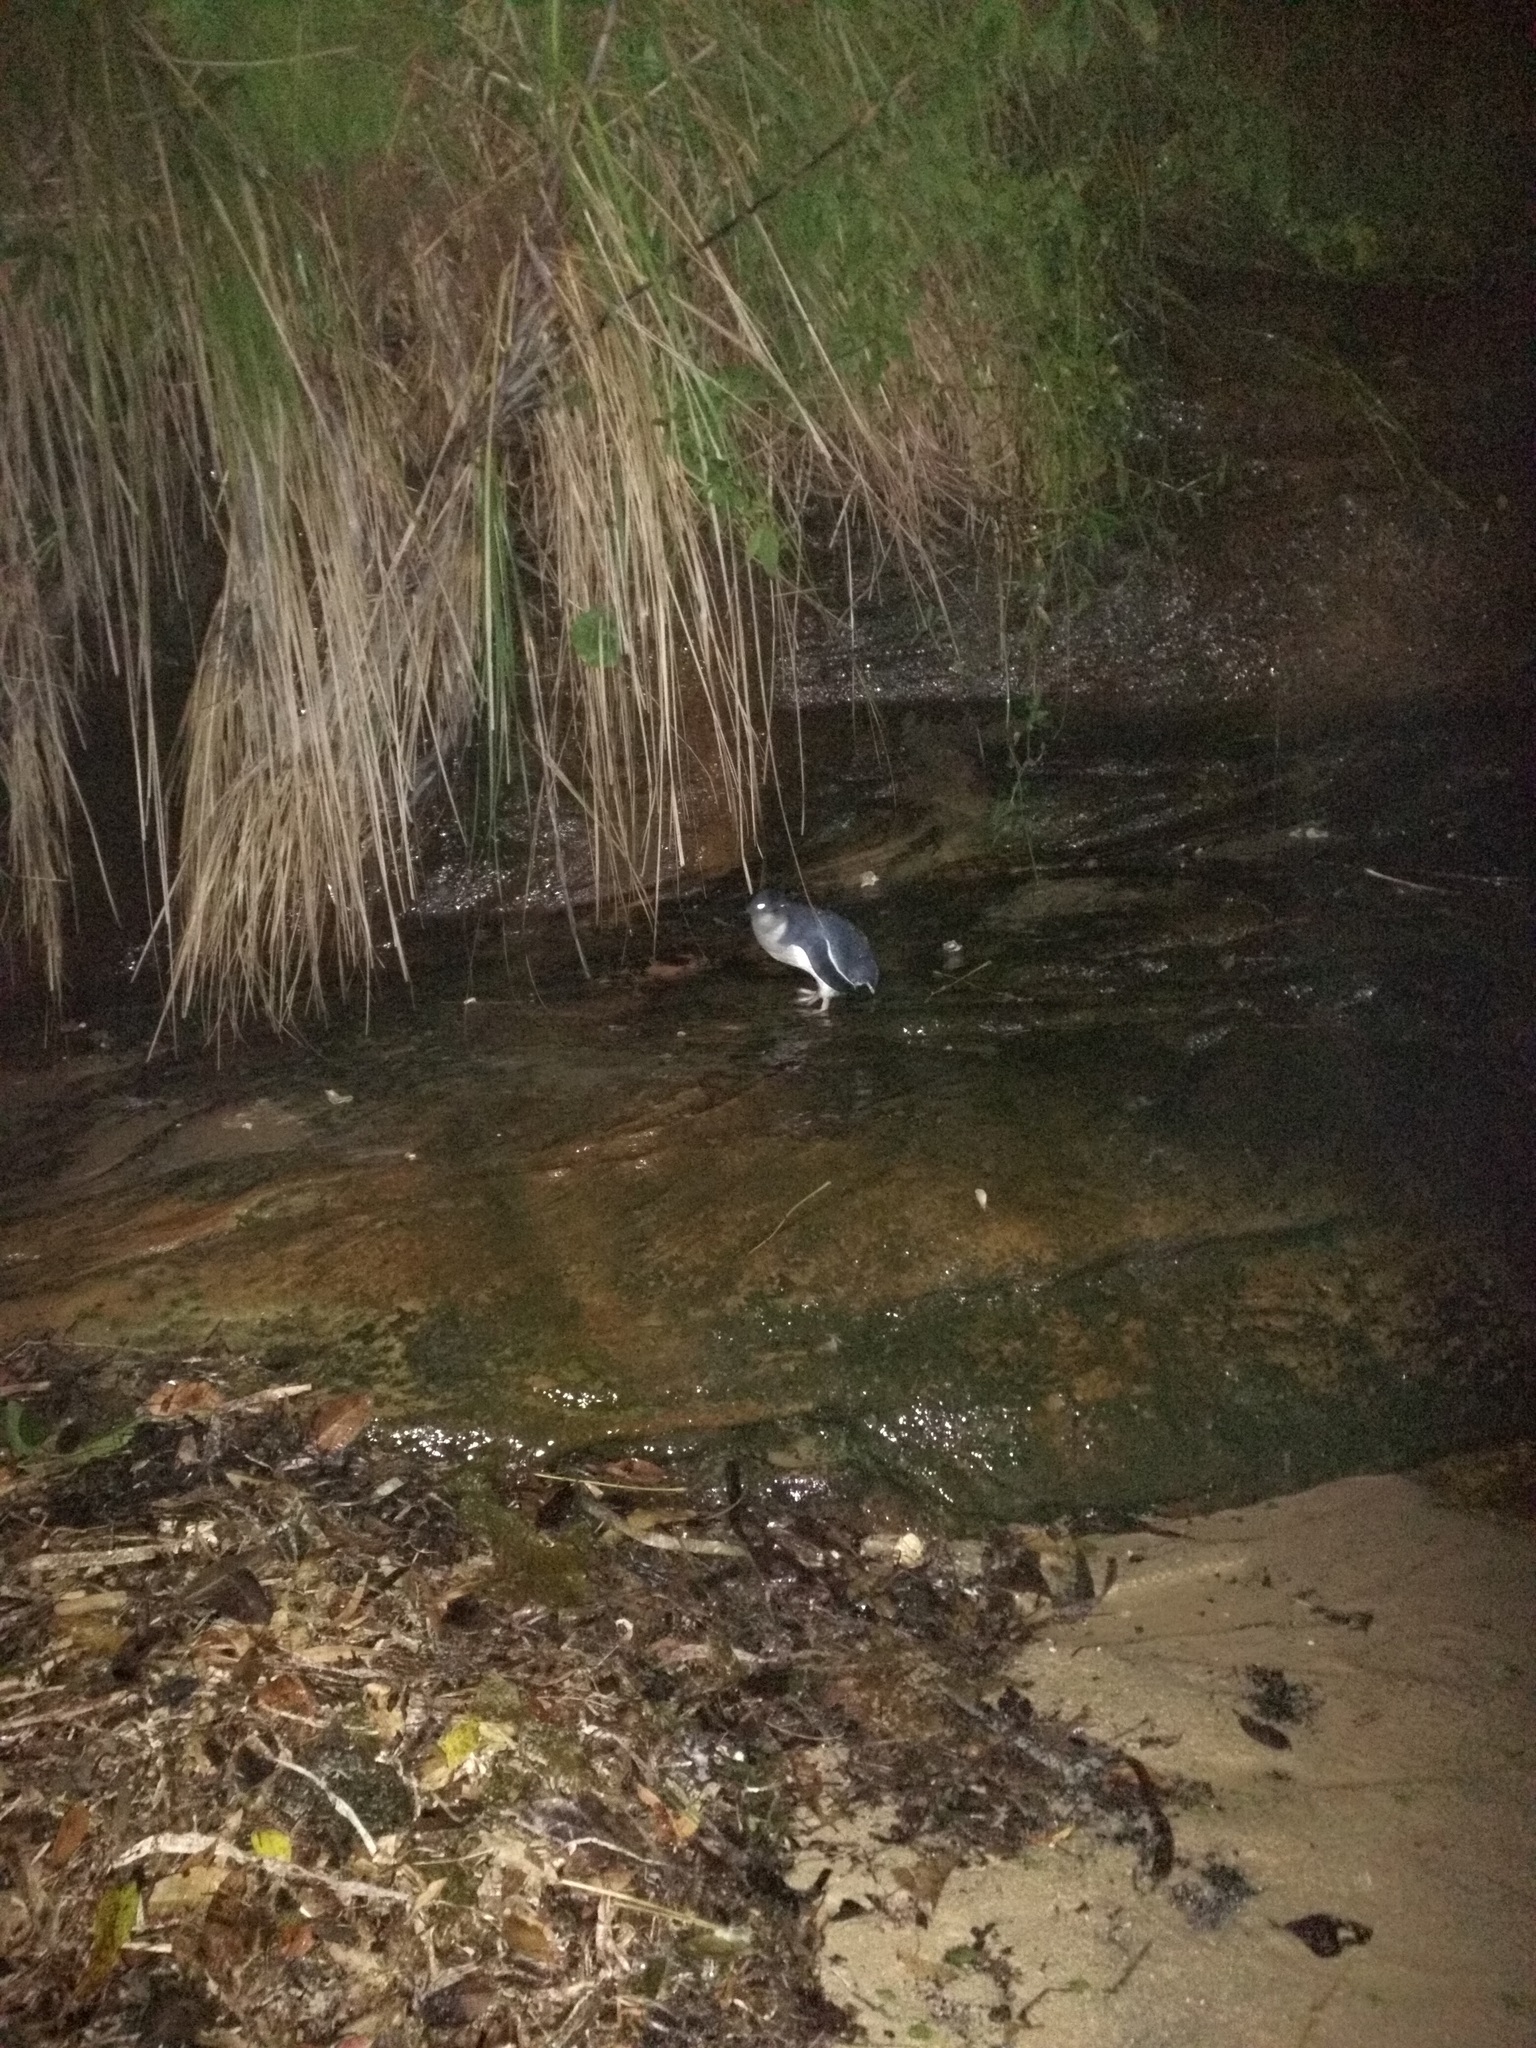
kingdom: Animalia
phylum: Chordata
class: Aves
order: Sphenisciformes
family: Spheniscidae
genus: Eudyptula
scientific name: Eudyptula minor
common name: Little penguin
